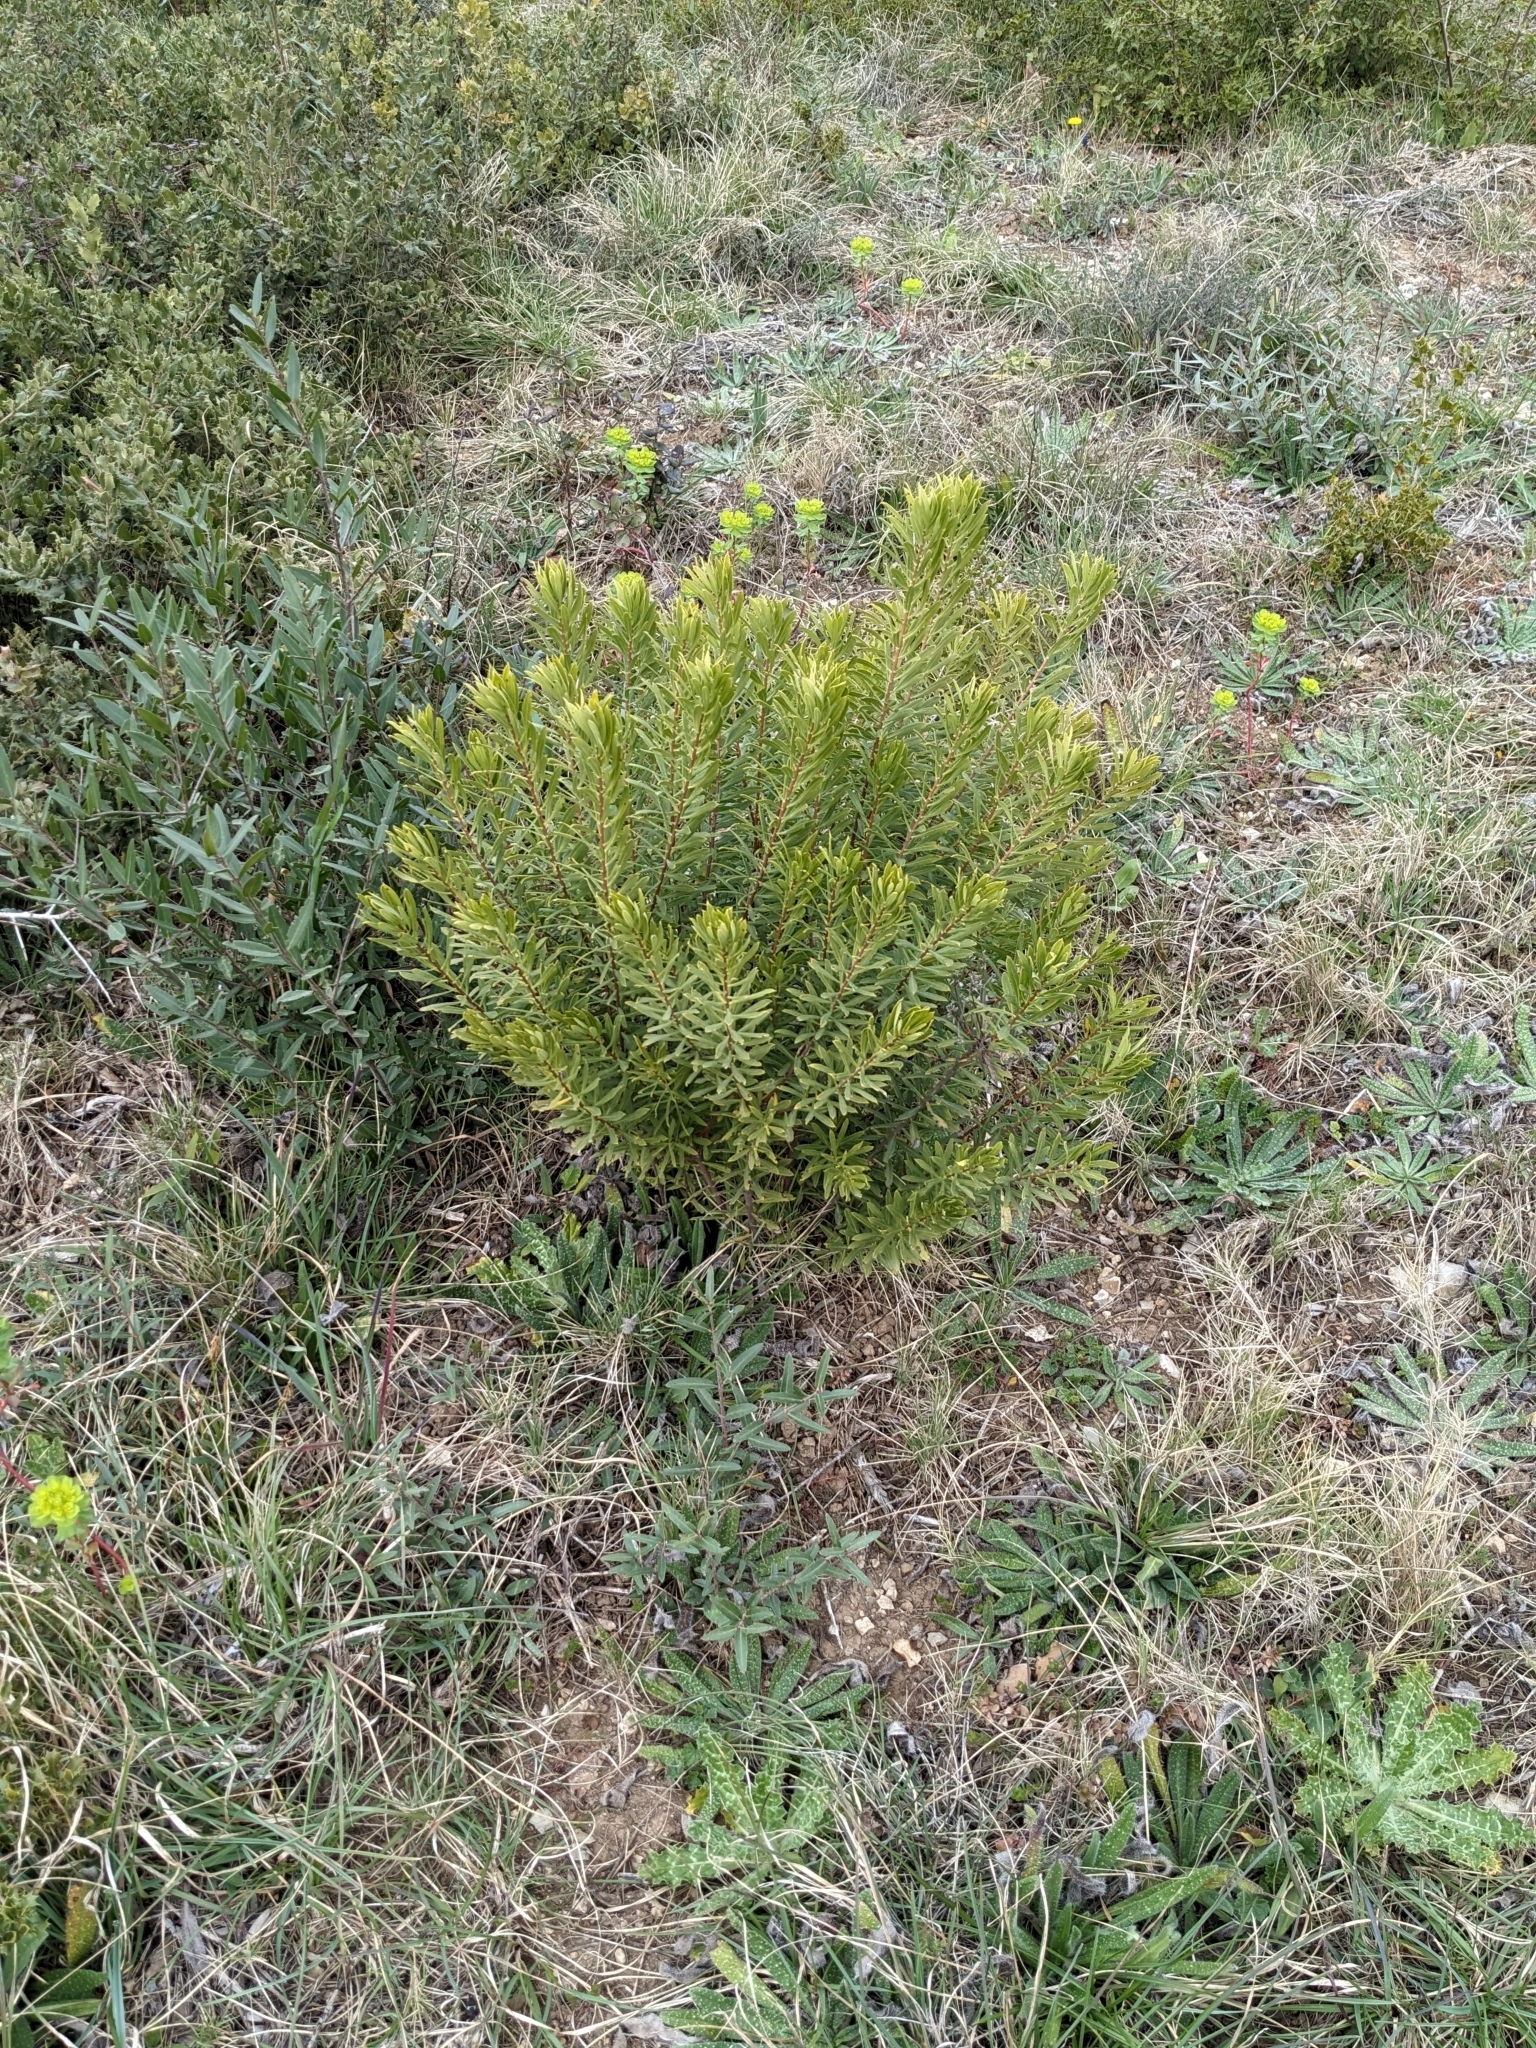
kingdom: Plantae
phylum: Tracheophyta
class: Magnoliopsida
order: Malvales
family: Thymelaeaceae
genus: Daphne
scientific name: Daphne gnidium
